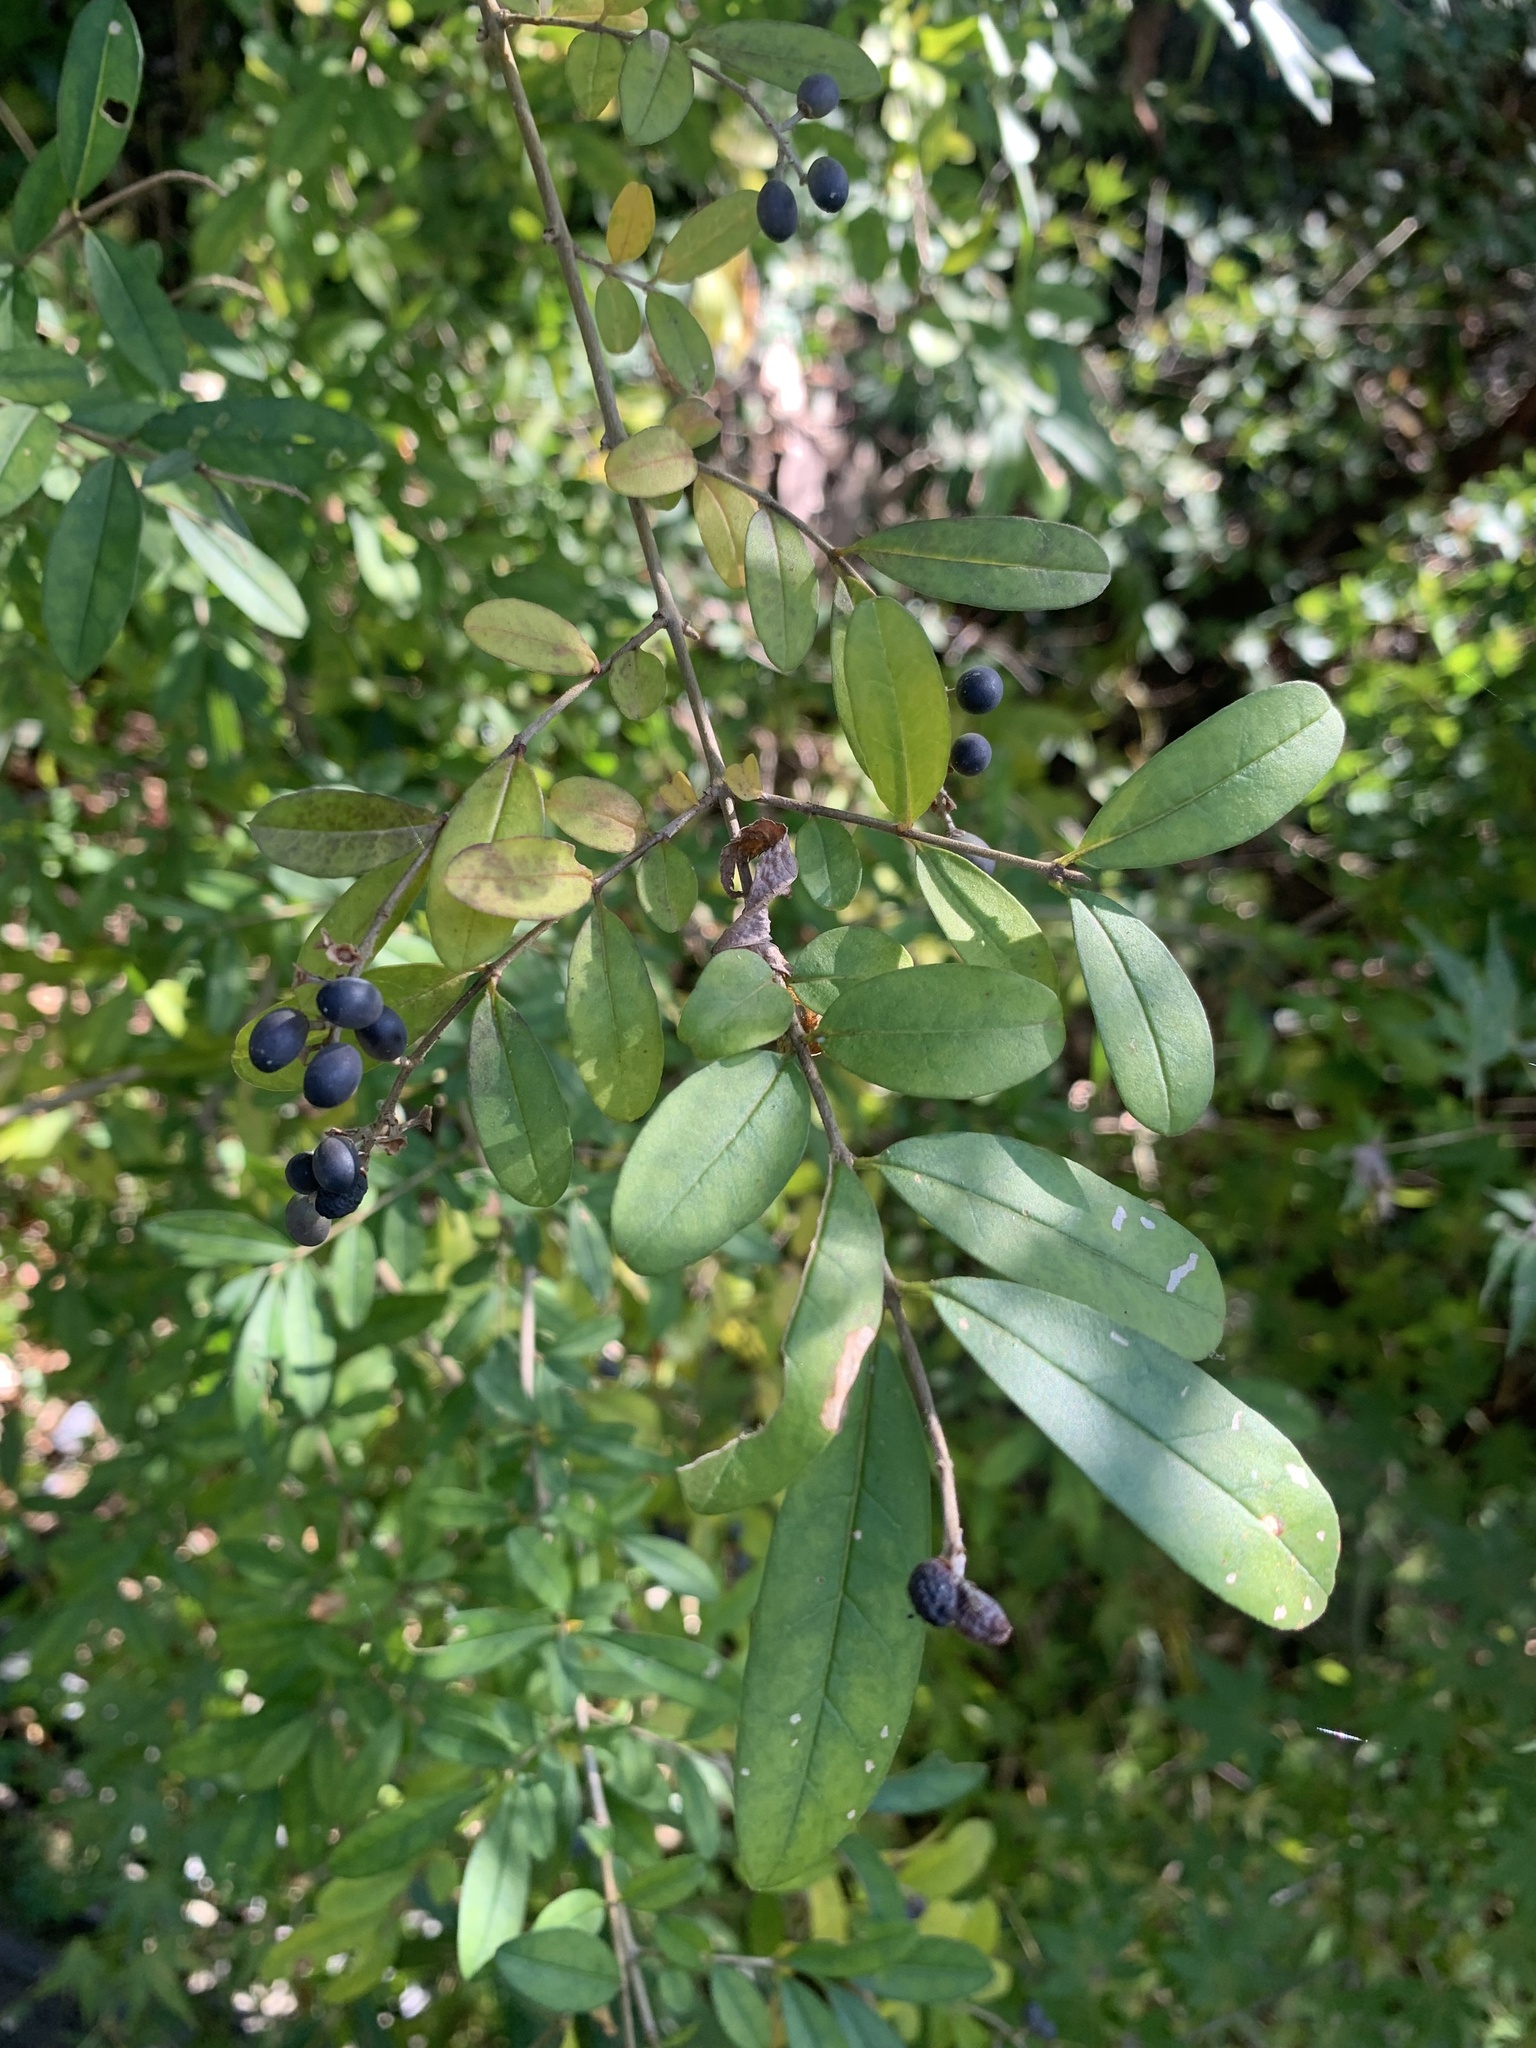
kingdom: Plantae
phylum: Tracheophyta
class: Magnoliopsida
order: Lamiales
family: Oleaceae
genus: Ligustrum
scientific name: Ligustrum obtusifolium
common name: Border privet
